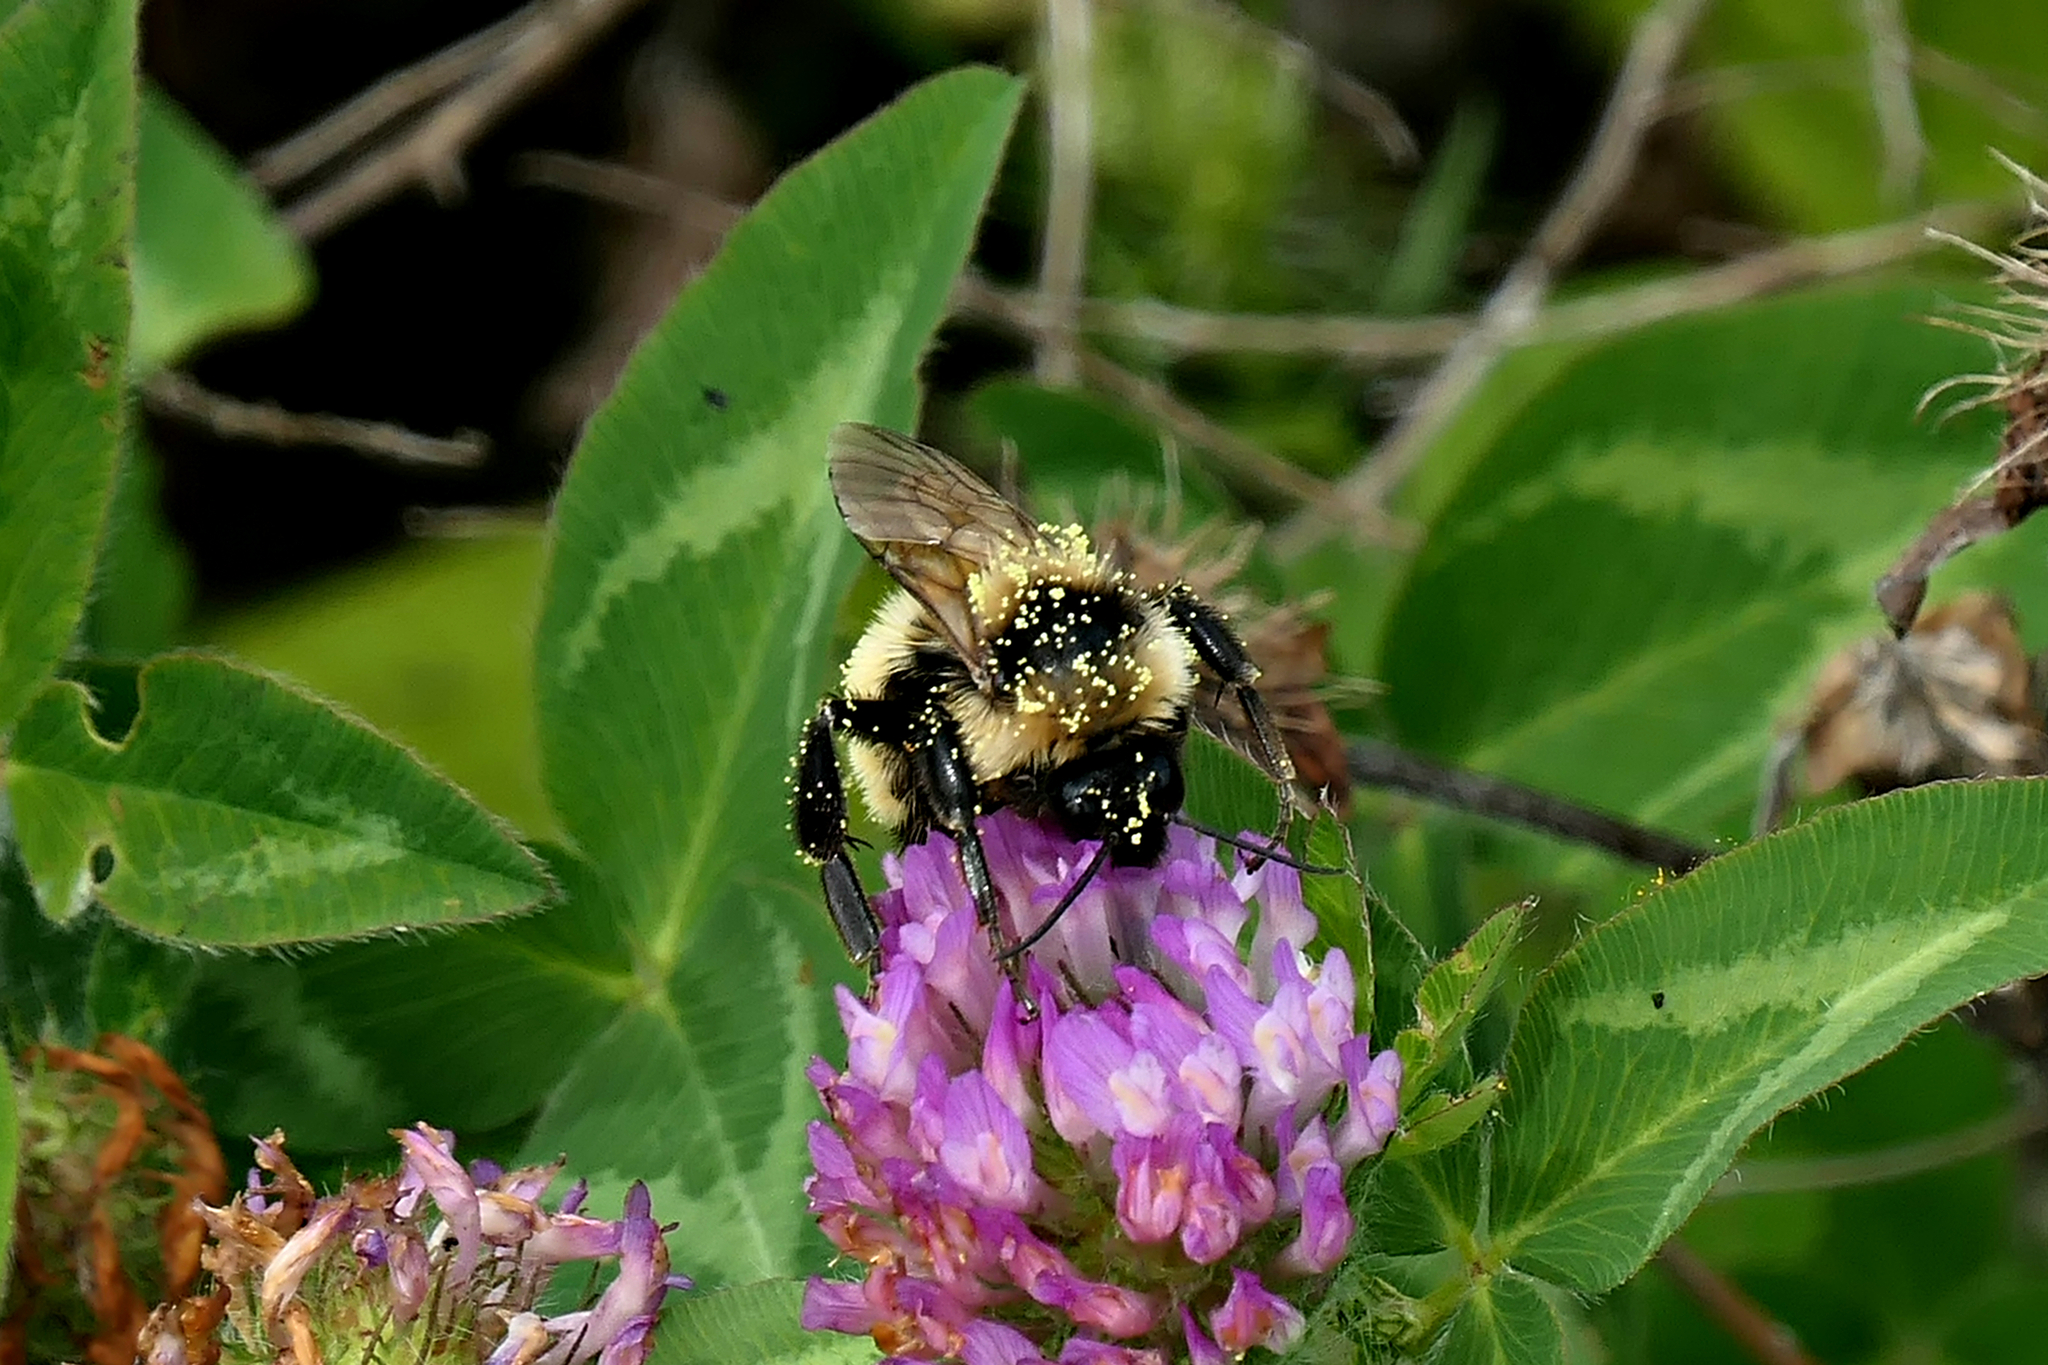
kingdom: Animalia
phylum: Arthropoda
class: Insecta
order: Hymenoptera
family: Apidae
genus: Bombus
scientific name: Bombus fervidus
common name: Yellow bumble bee
